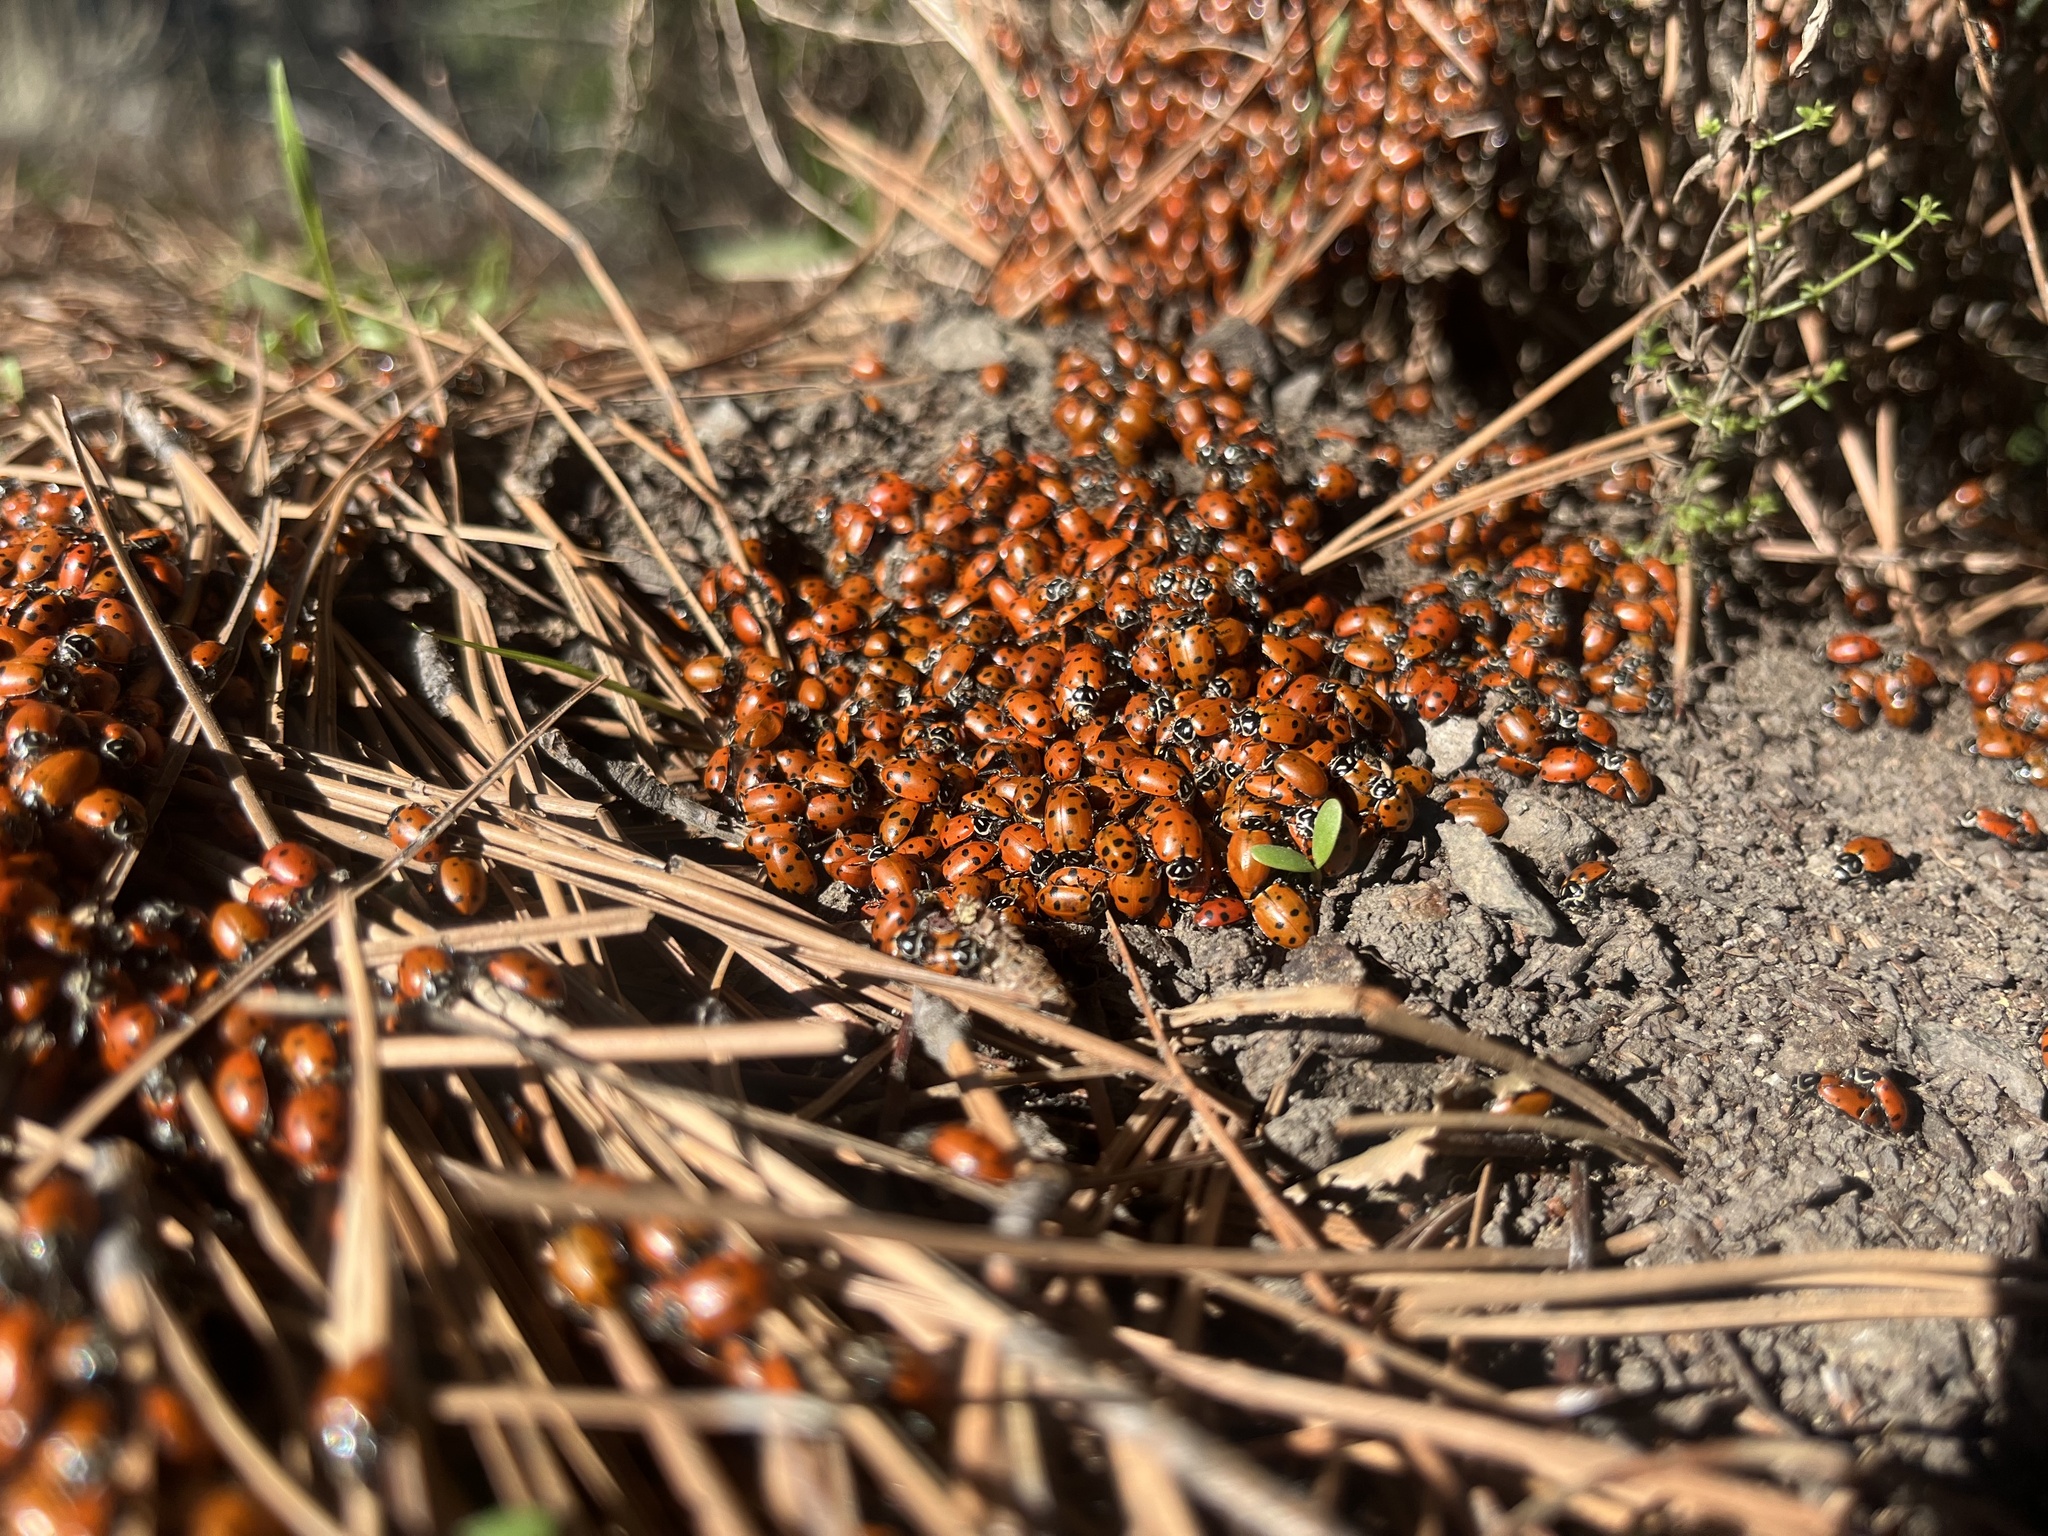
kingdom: Animalia
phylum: Arthropoda
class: Insecta
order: Coleoptera
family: Coccinellidae
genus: Hippodamia
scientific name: Hippodamia convergens
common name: Convergent lady beetle
